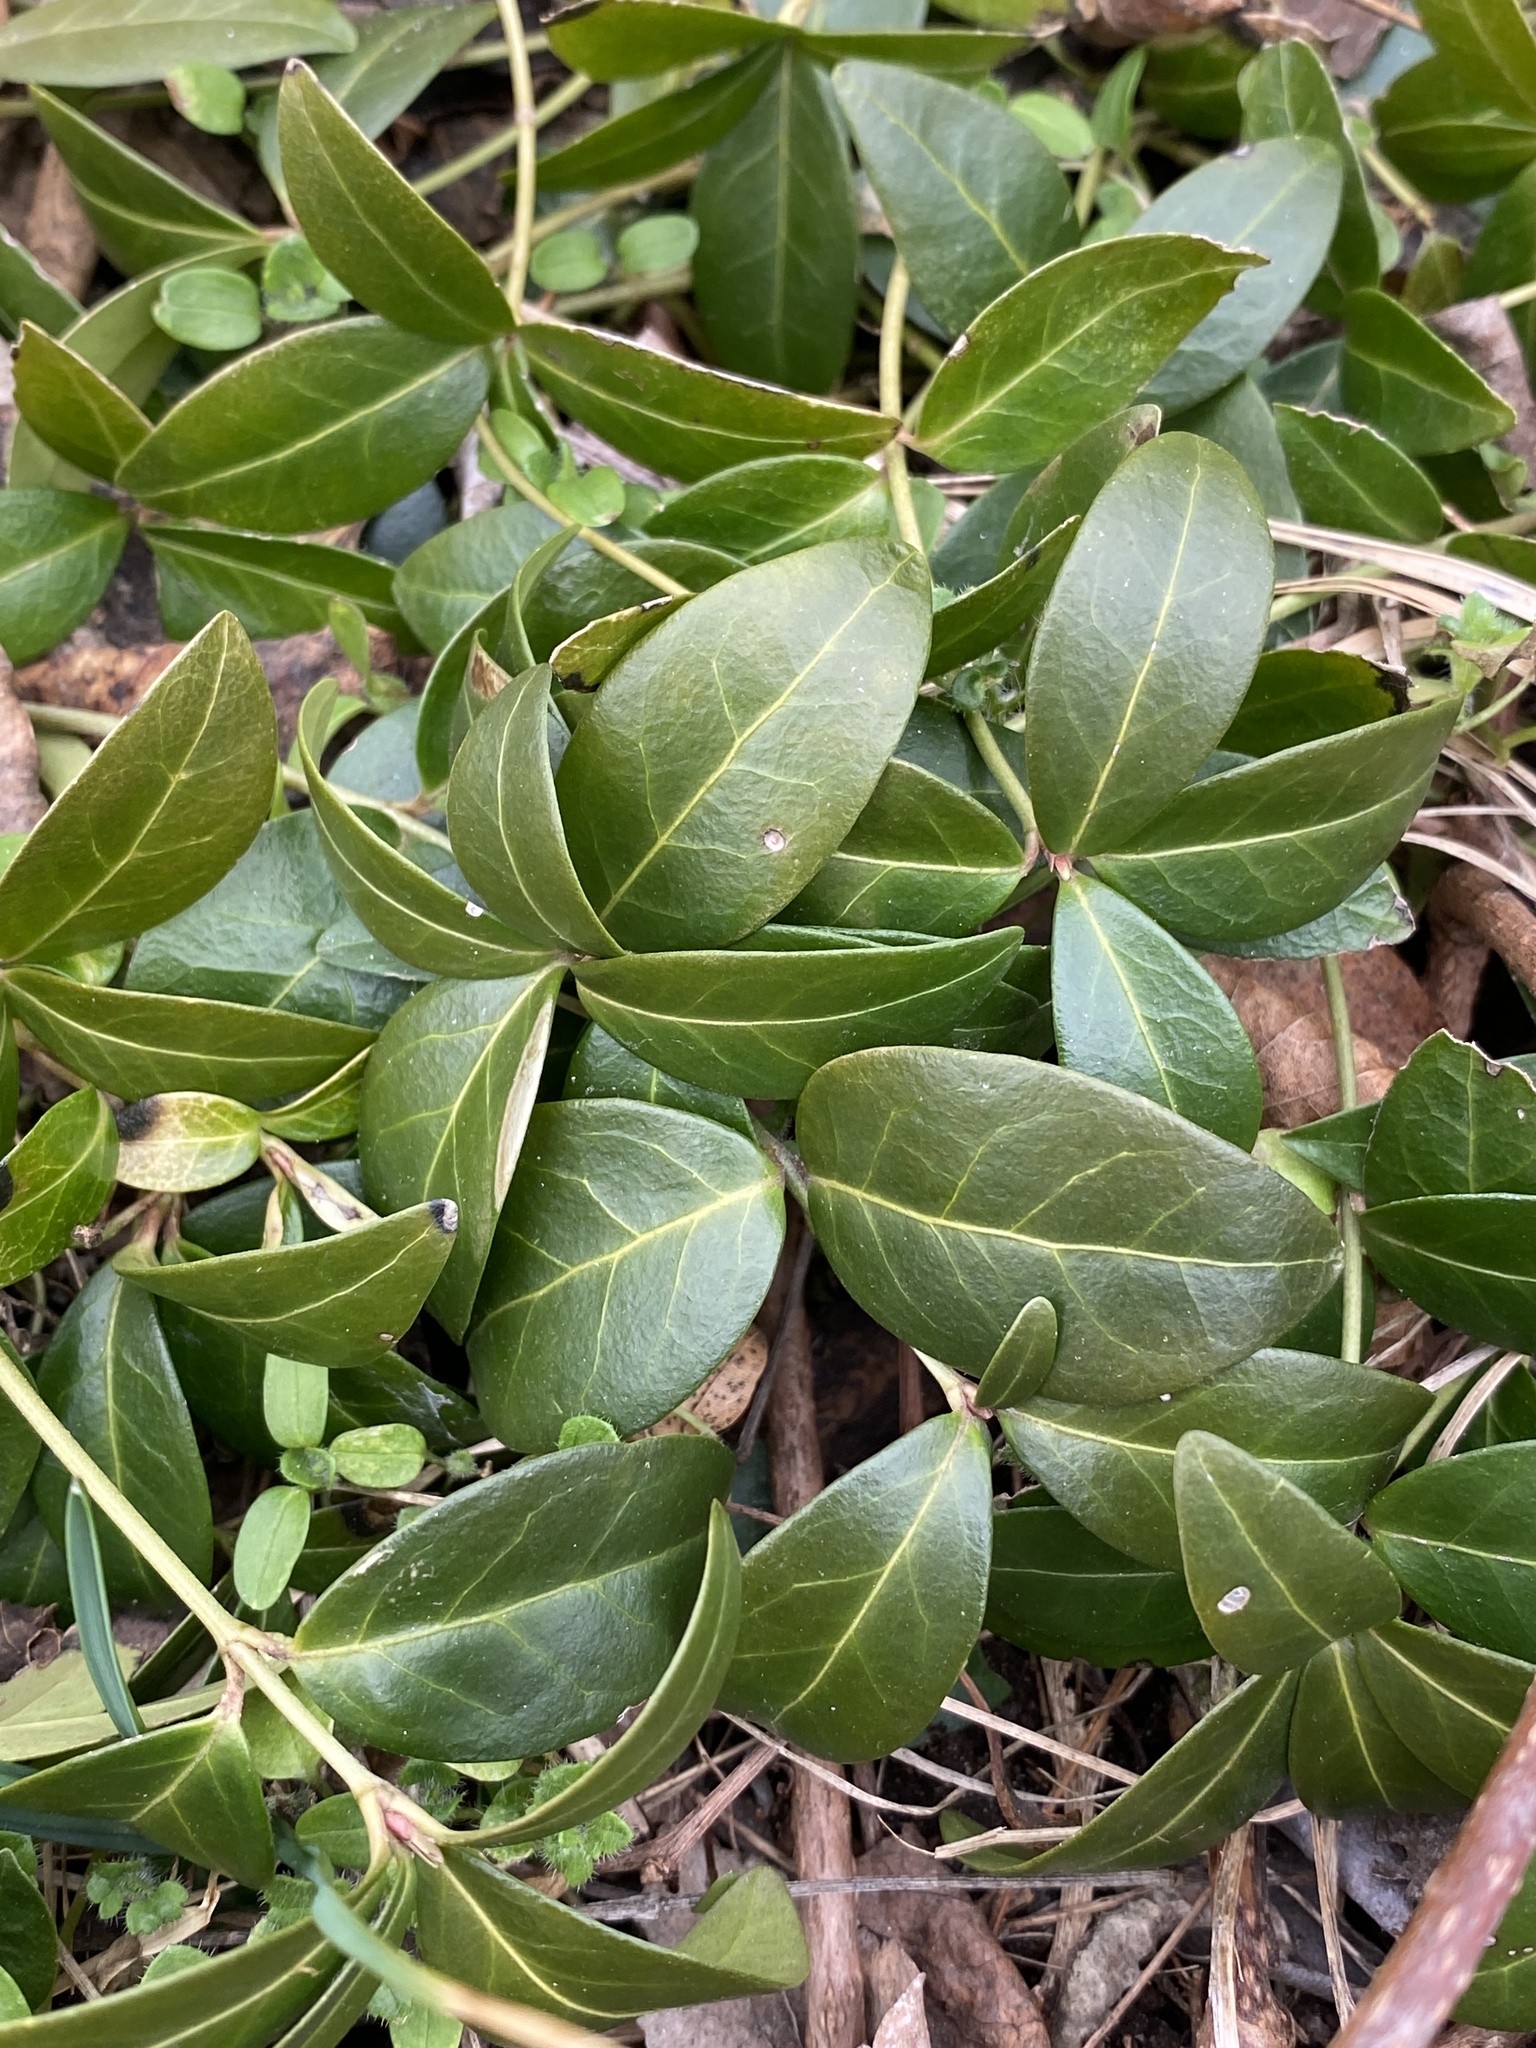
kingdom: Plantae
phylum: Tracheophyta
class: Magnoliopsida
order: Gentianales
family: Apocynaceae
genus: Vinca
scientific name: Vinca minor
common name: Lesser periwinkle
